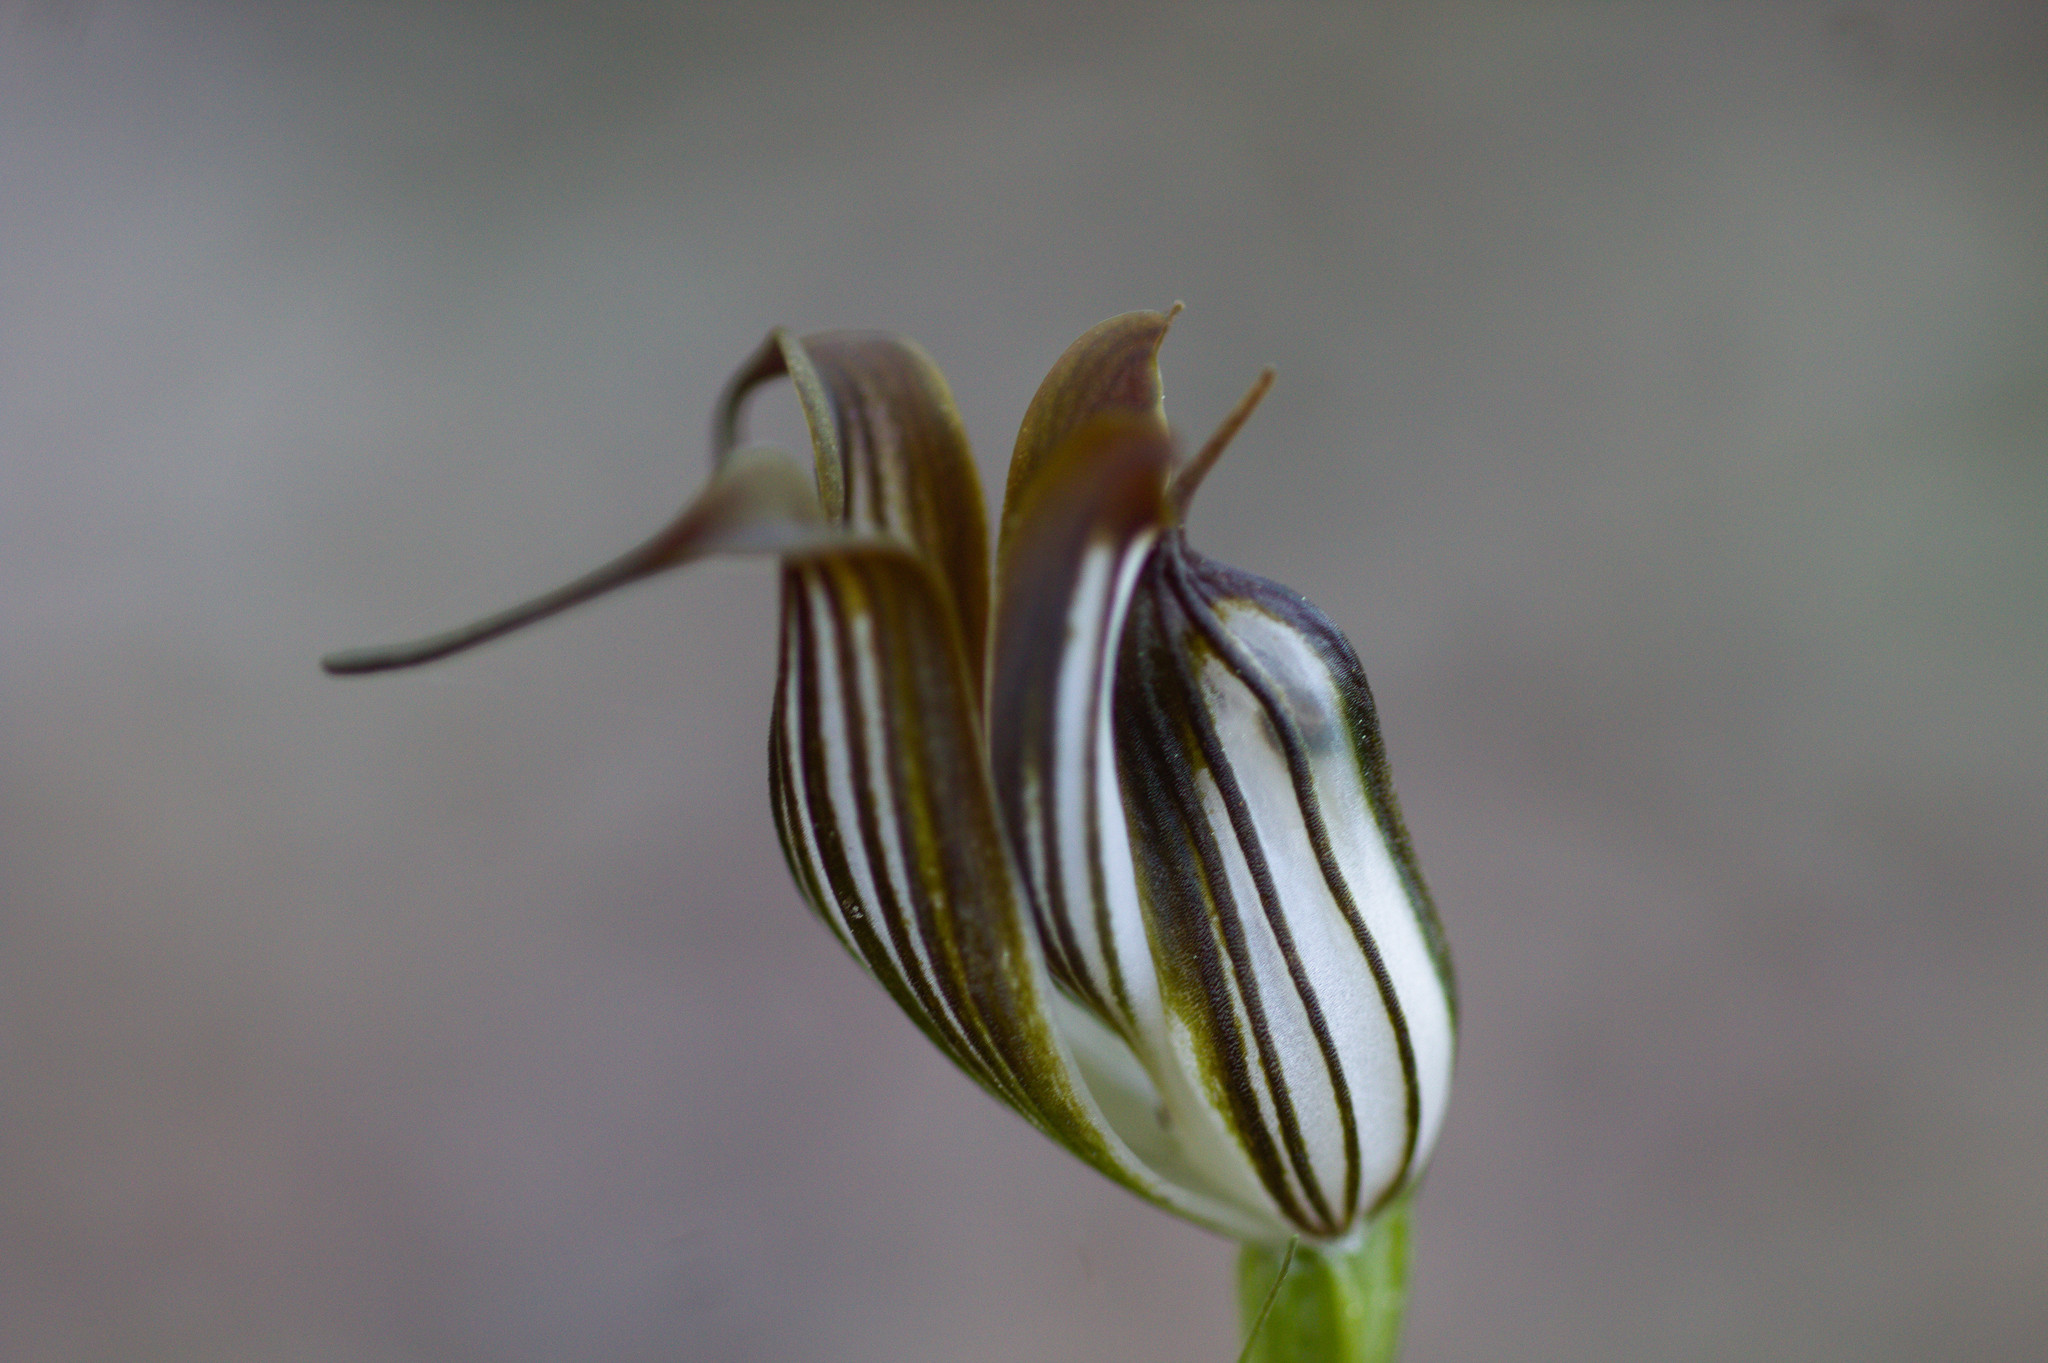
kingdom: Plantae
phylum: Tracheophyta
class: Liliopsida
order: Asparagales
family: Orchidaceae
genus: Pterostylis
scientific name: Pterostylis recurva
